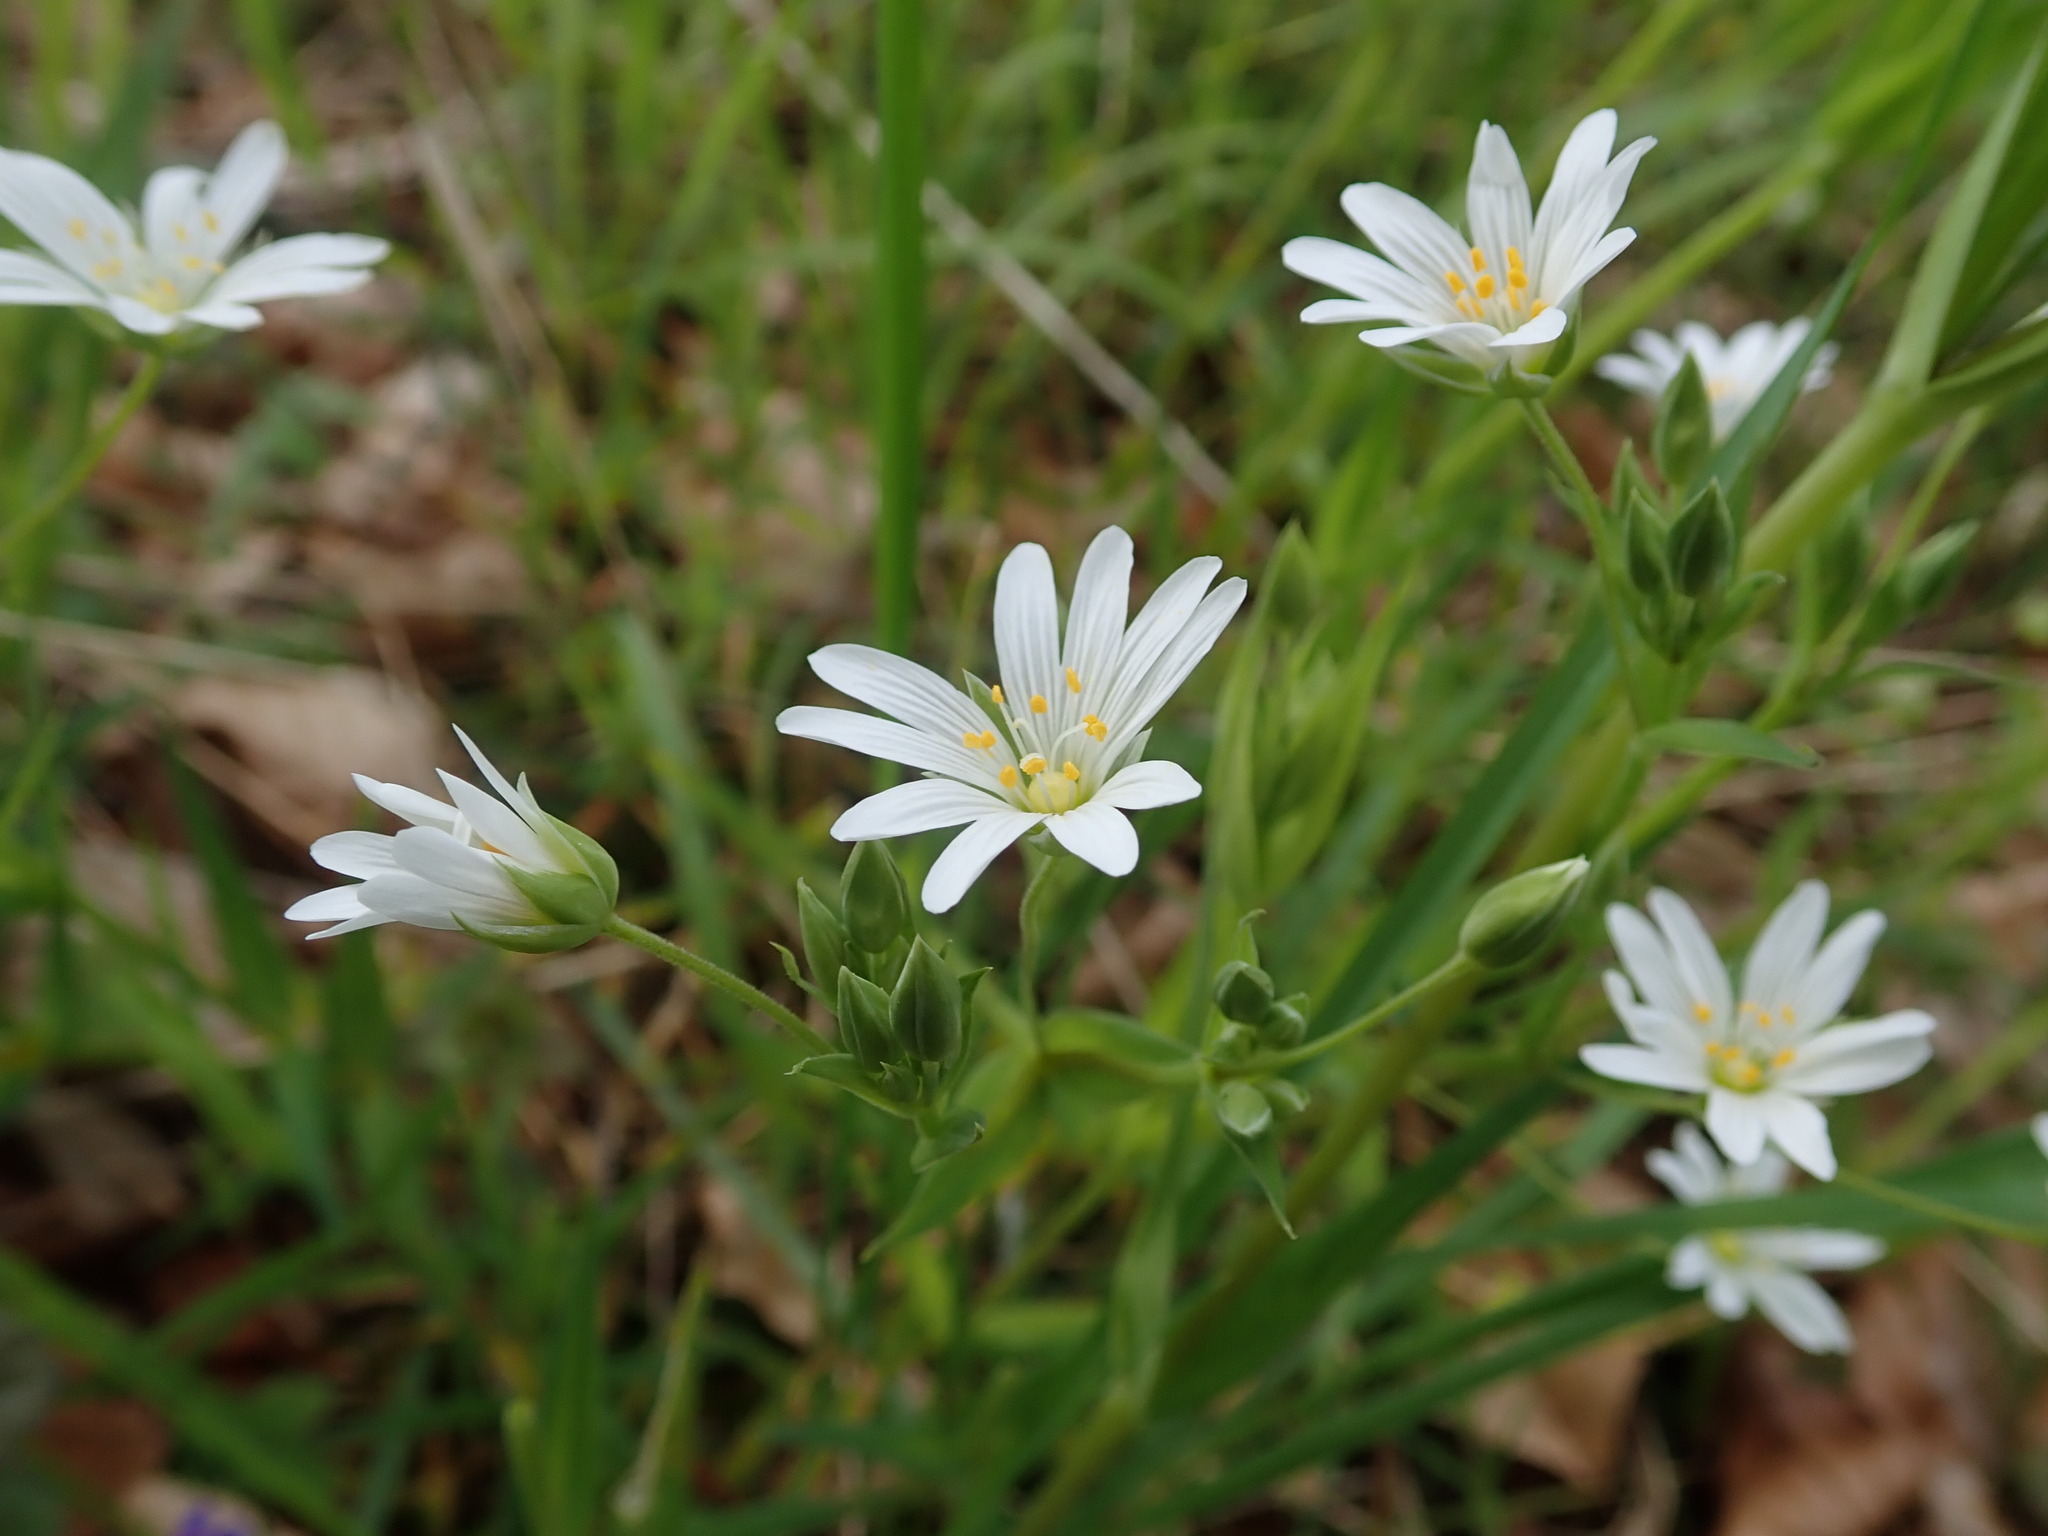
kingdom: Plantae
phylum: Tracheophyta
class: Magnoliopsida
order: Caryophyllales
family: Caryophyllaceae
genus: Rabelera
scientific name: Rabelera holostea
